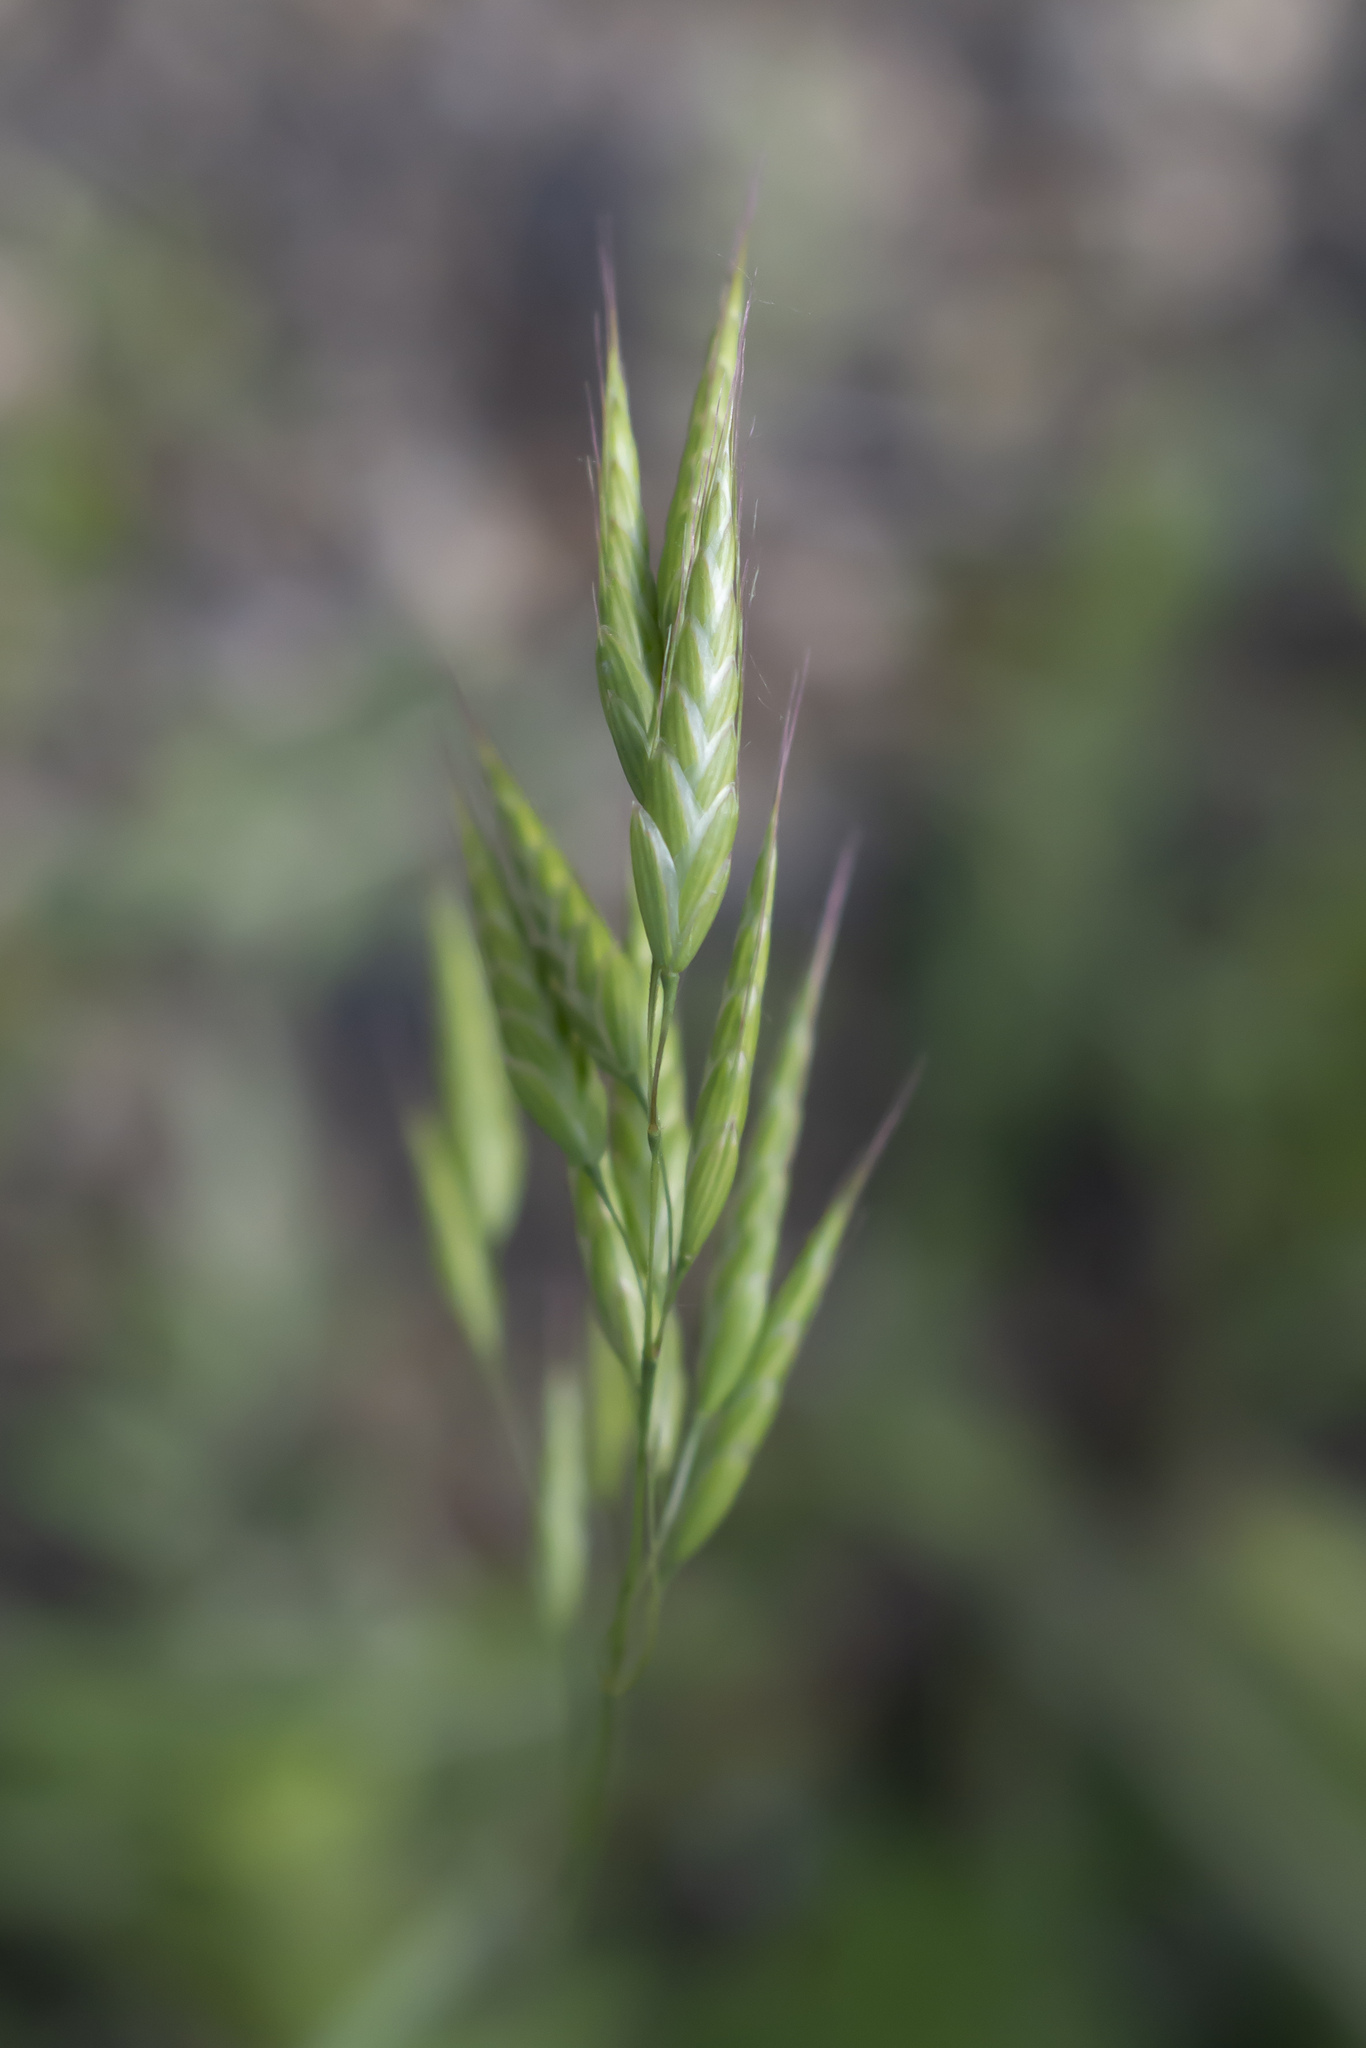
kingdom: Plantae
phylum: Tracheophyta
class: Liliopsida
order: Poales
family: Poaceae
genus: Bromus
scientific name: Bromus squarrosus
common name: Corn brome
